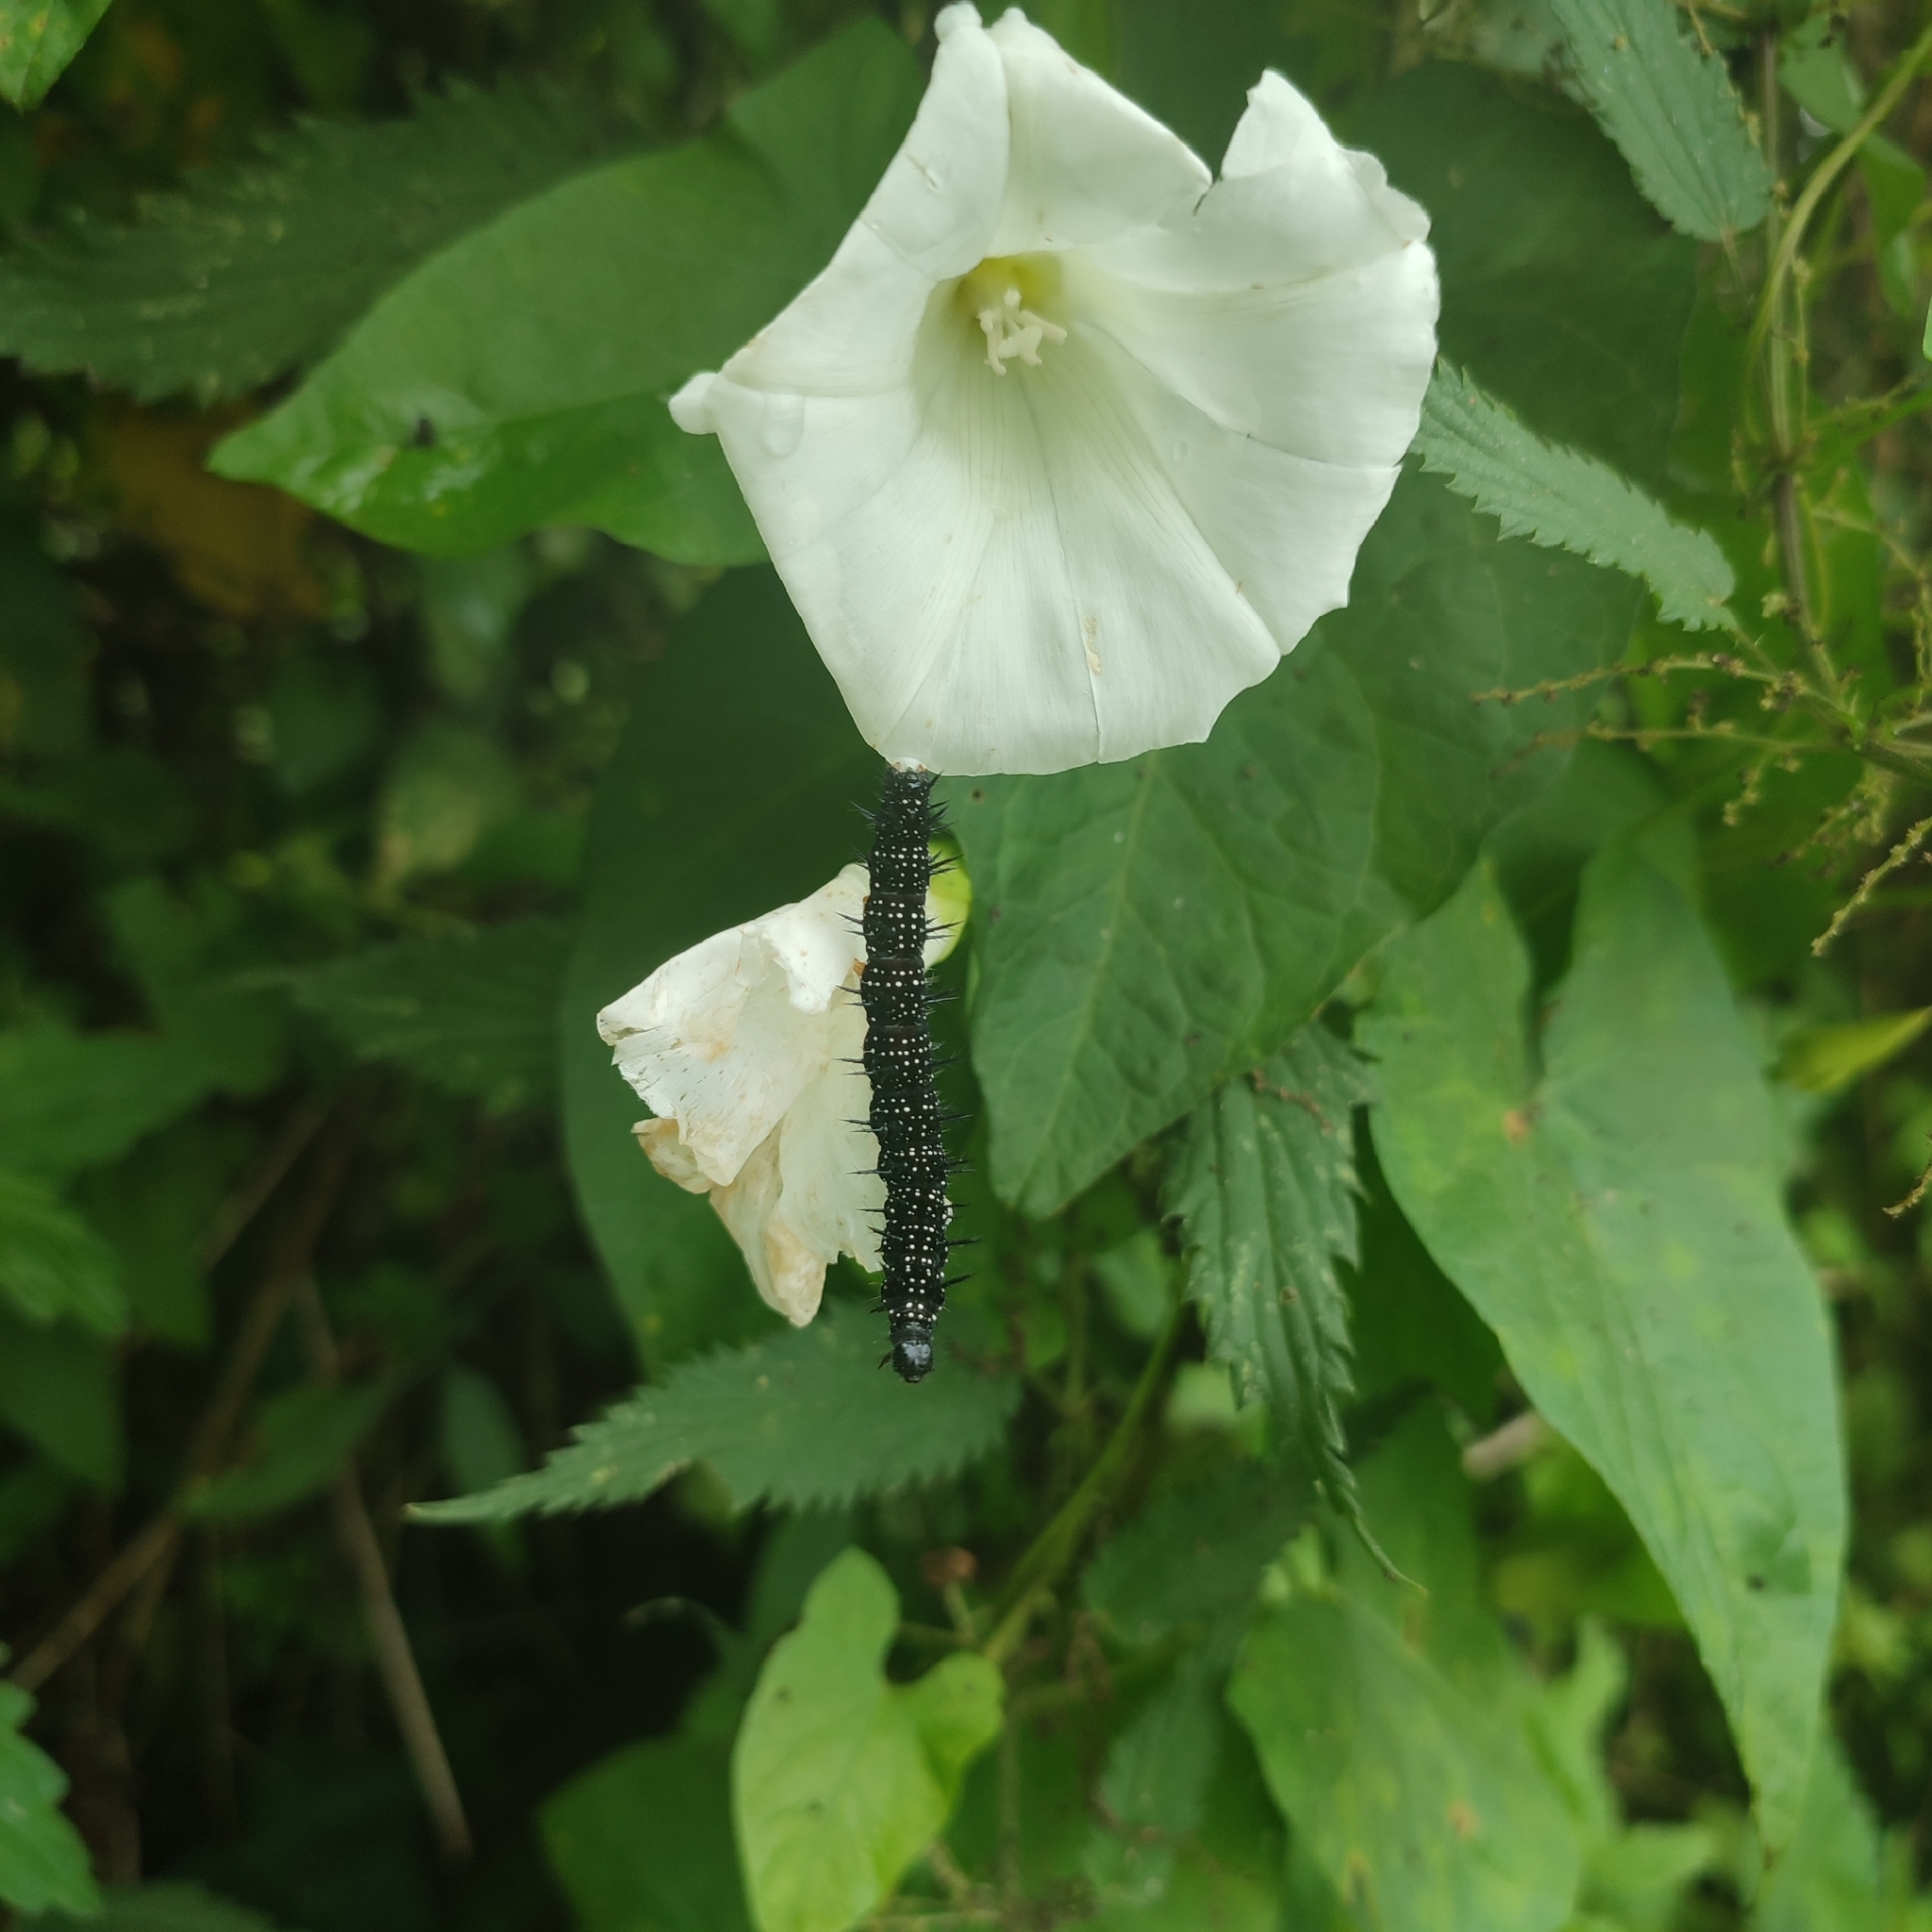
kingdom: Animalia
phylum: Arthropoda
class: Insecta
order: Lepidoptera
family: Nymphalidae
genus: Aglais
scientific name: Aglais io
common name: Peacock
